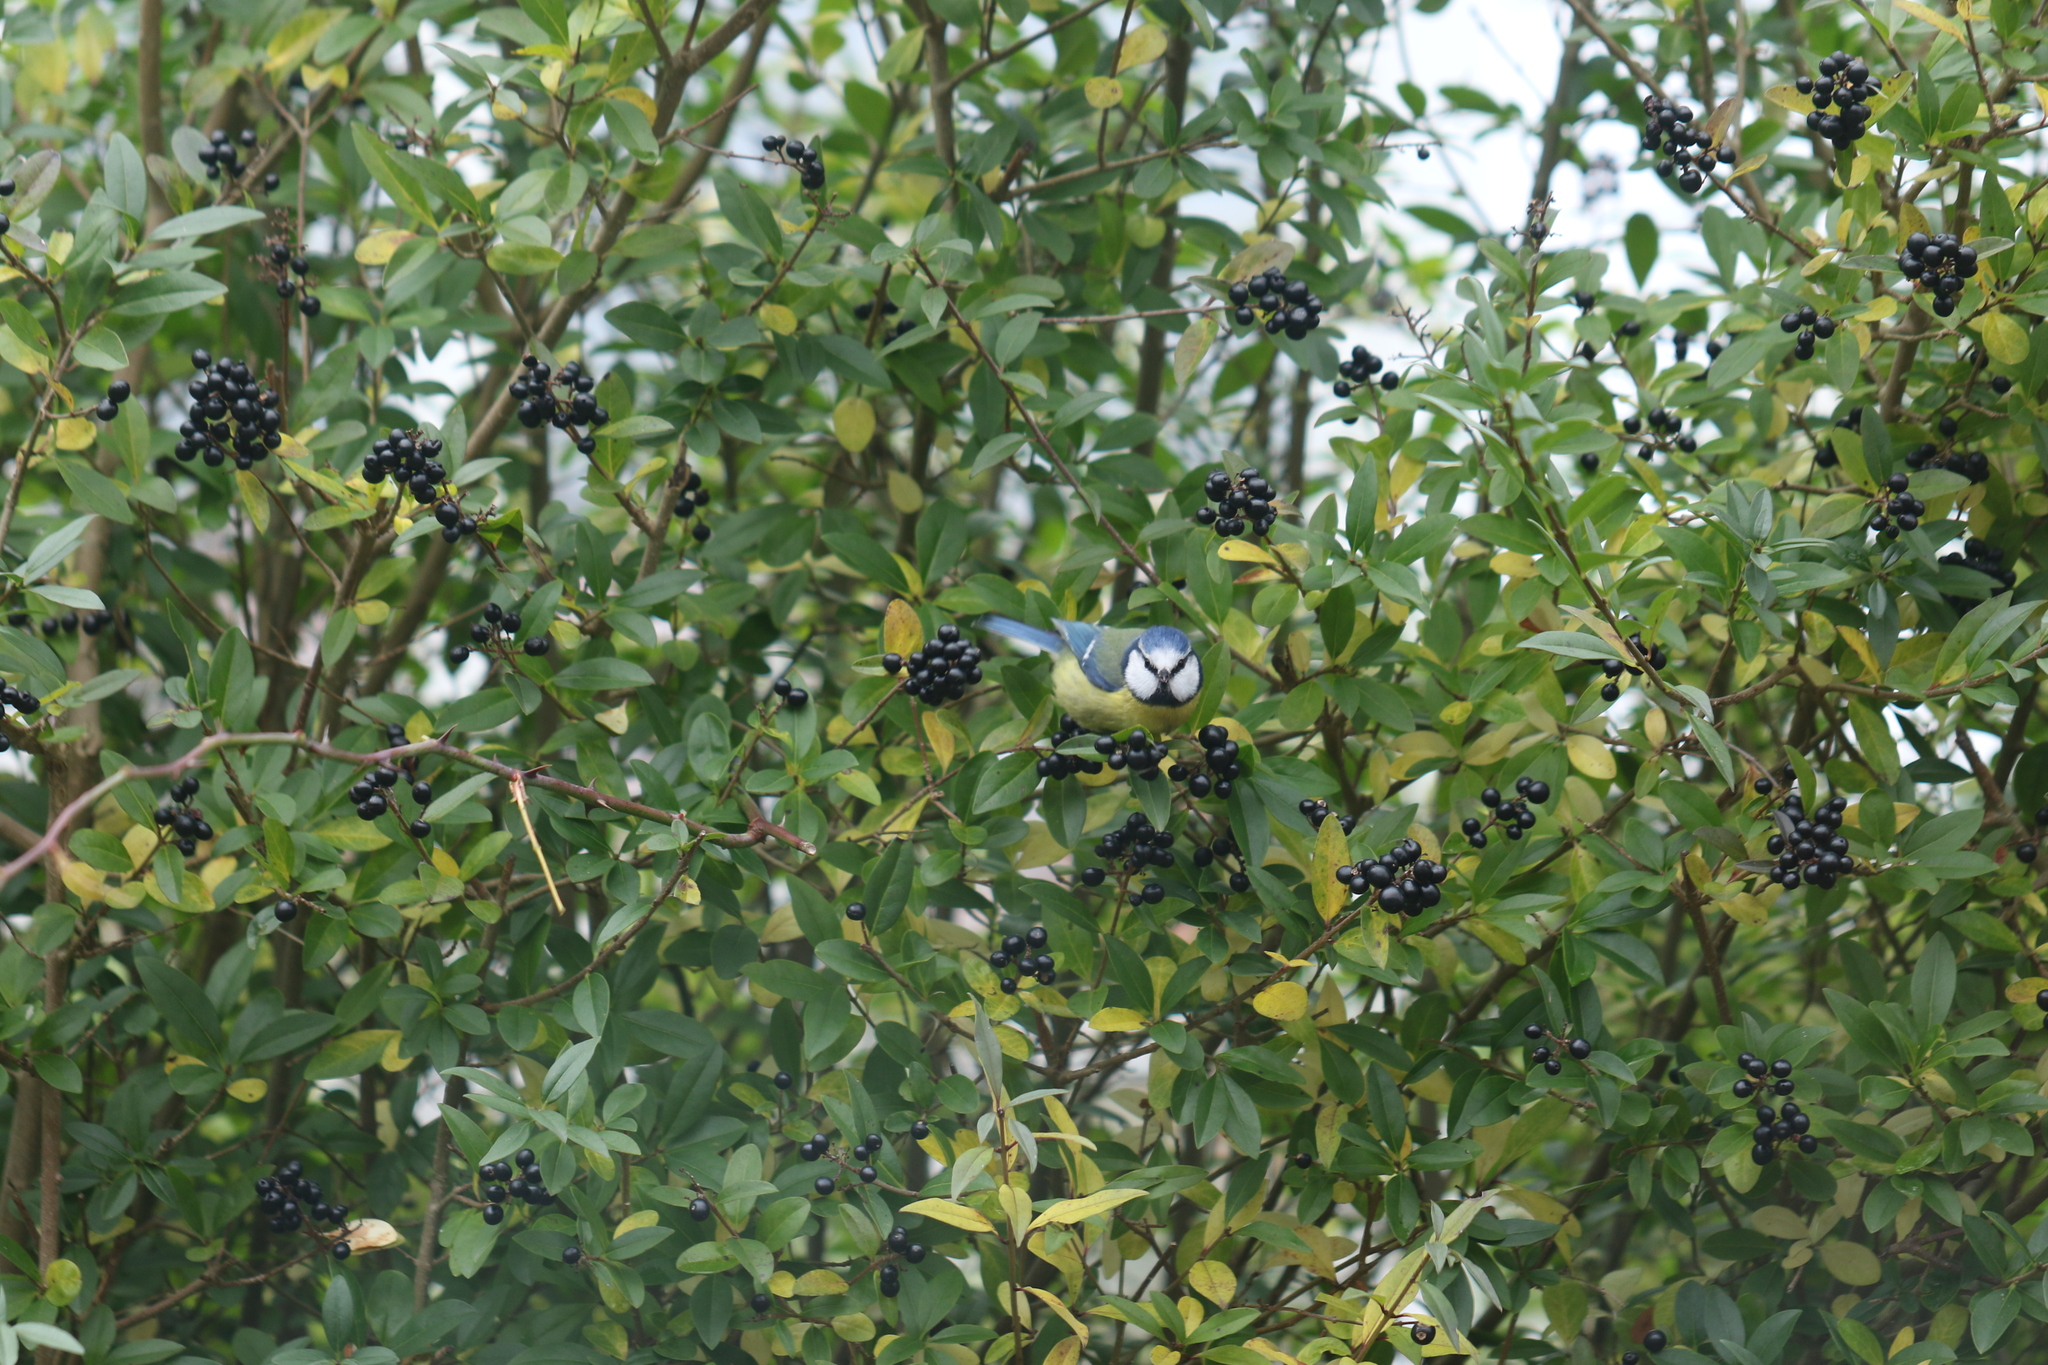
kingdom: Animalia
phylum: Chordata
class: Aves
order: Passeriformes
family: Paridae
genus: Cyanistes
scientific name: Cyanistes caeruleus
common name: Eurasian blue tit
